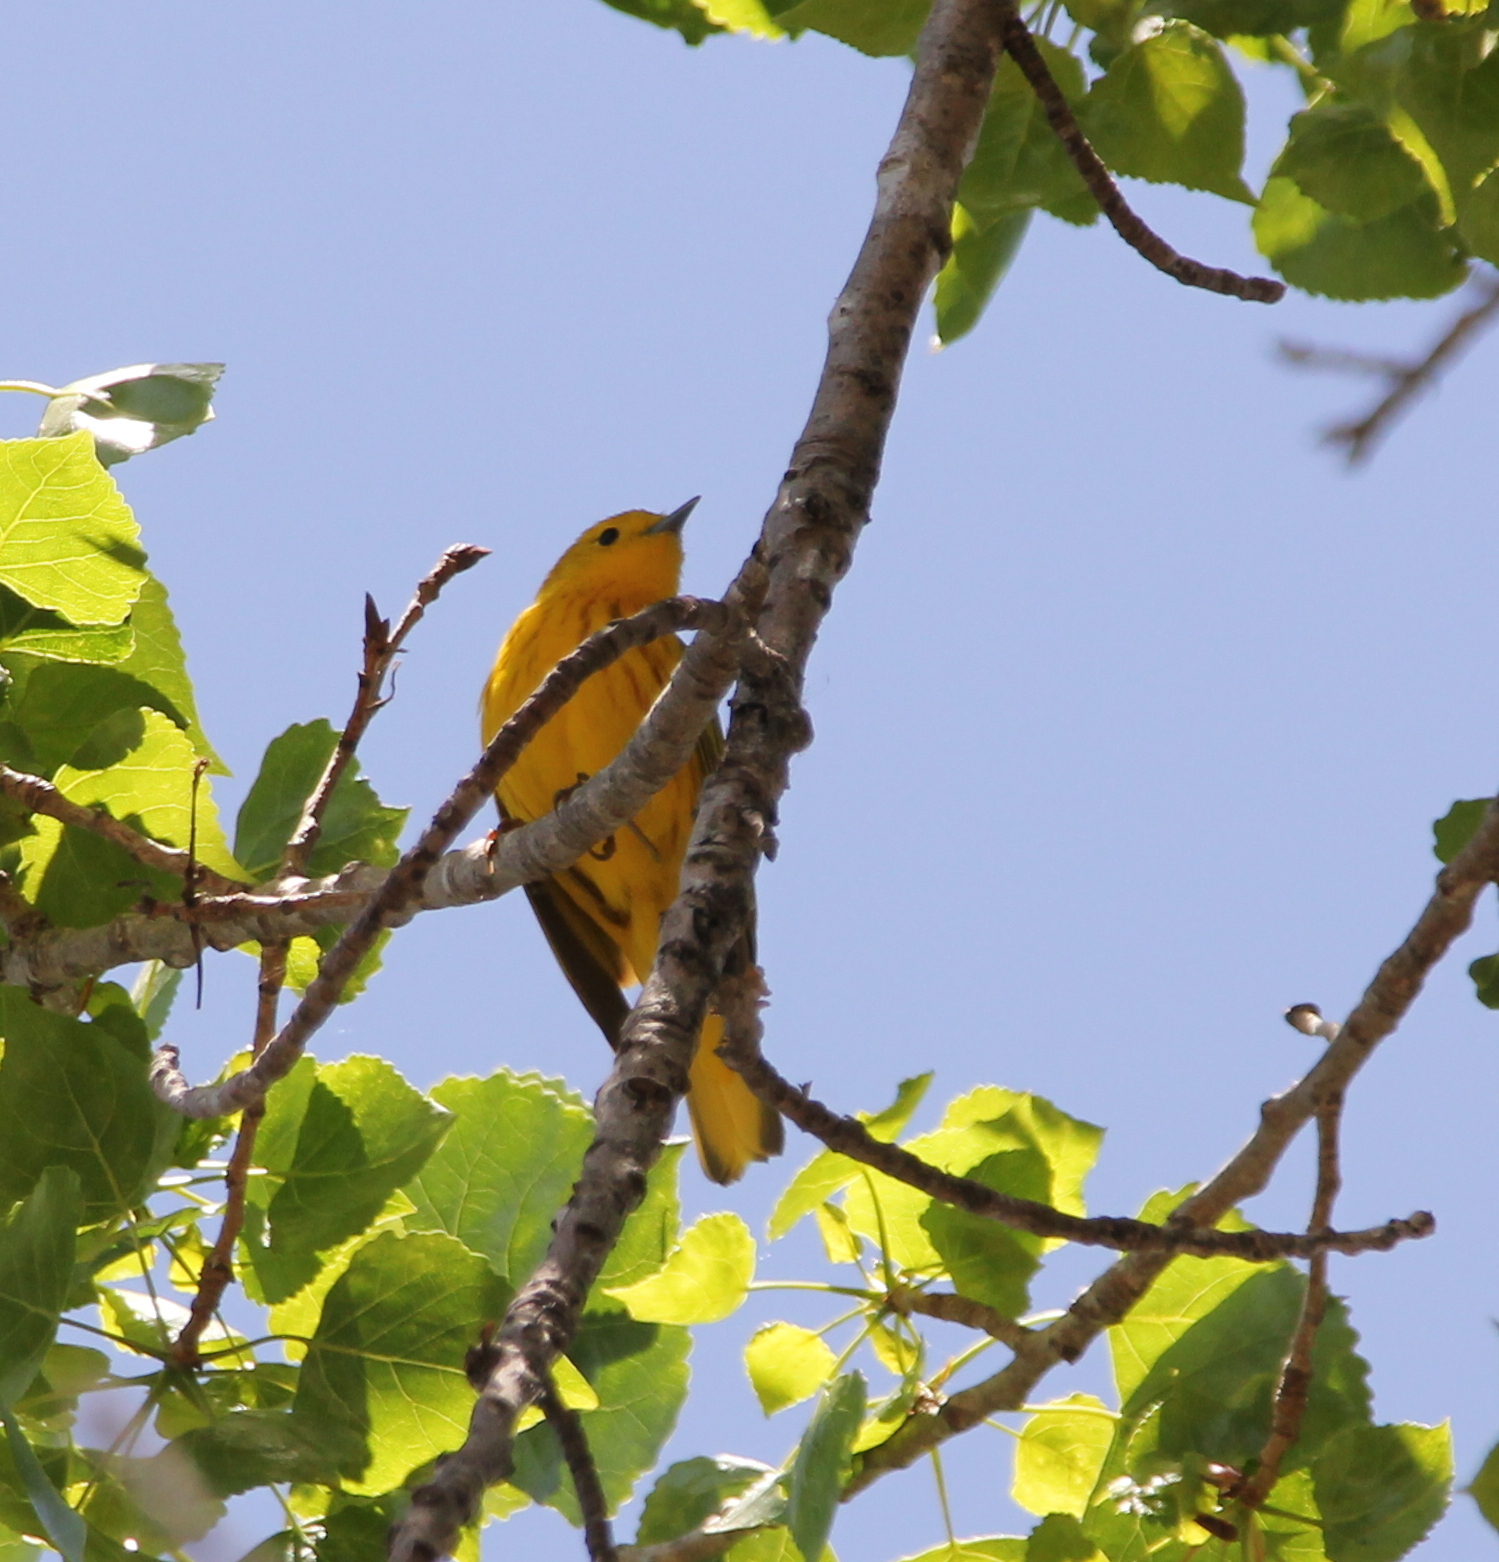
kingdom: Animalia
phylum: Chordata
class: Aves
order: Passeriformes
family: Parulidae
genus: Setophaga
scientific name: Setophaga petechia
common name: Yellow warbler
